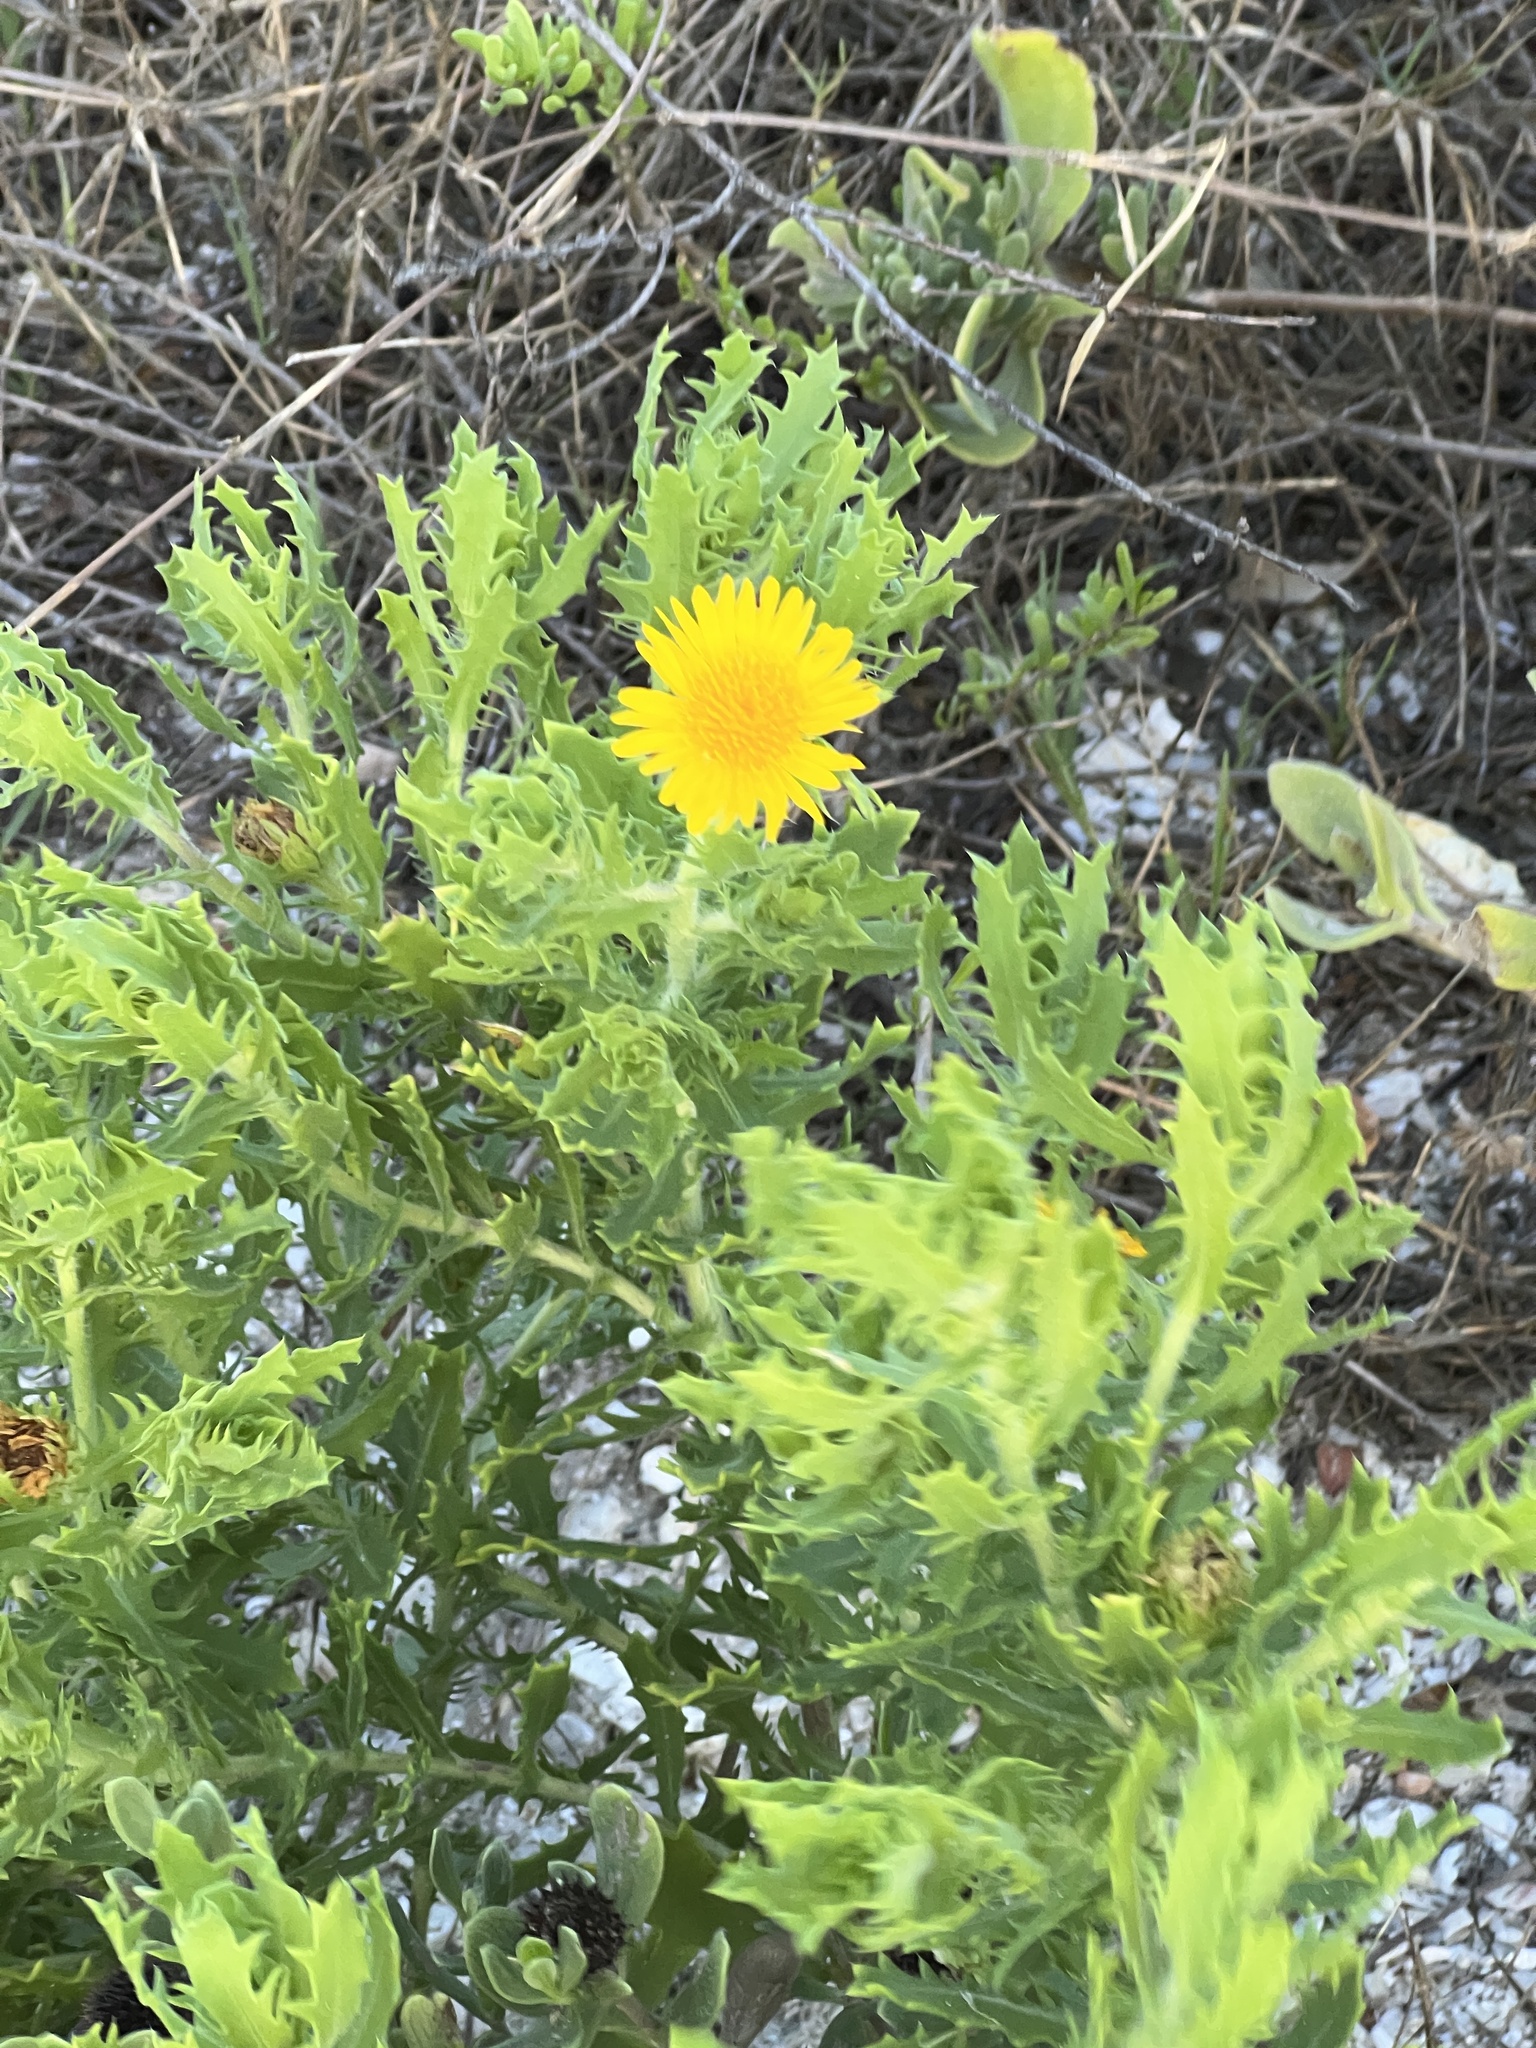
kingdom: Plantae
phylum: Tracheophyta
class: Magnoliopsida
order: Asterales
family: Asteraceae
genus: Rayjacksonia
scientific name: Rayjacksonia phyllocephala
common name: Gulf coast camphor daisy
